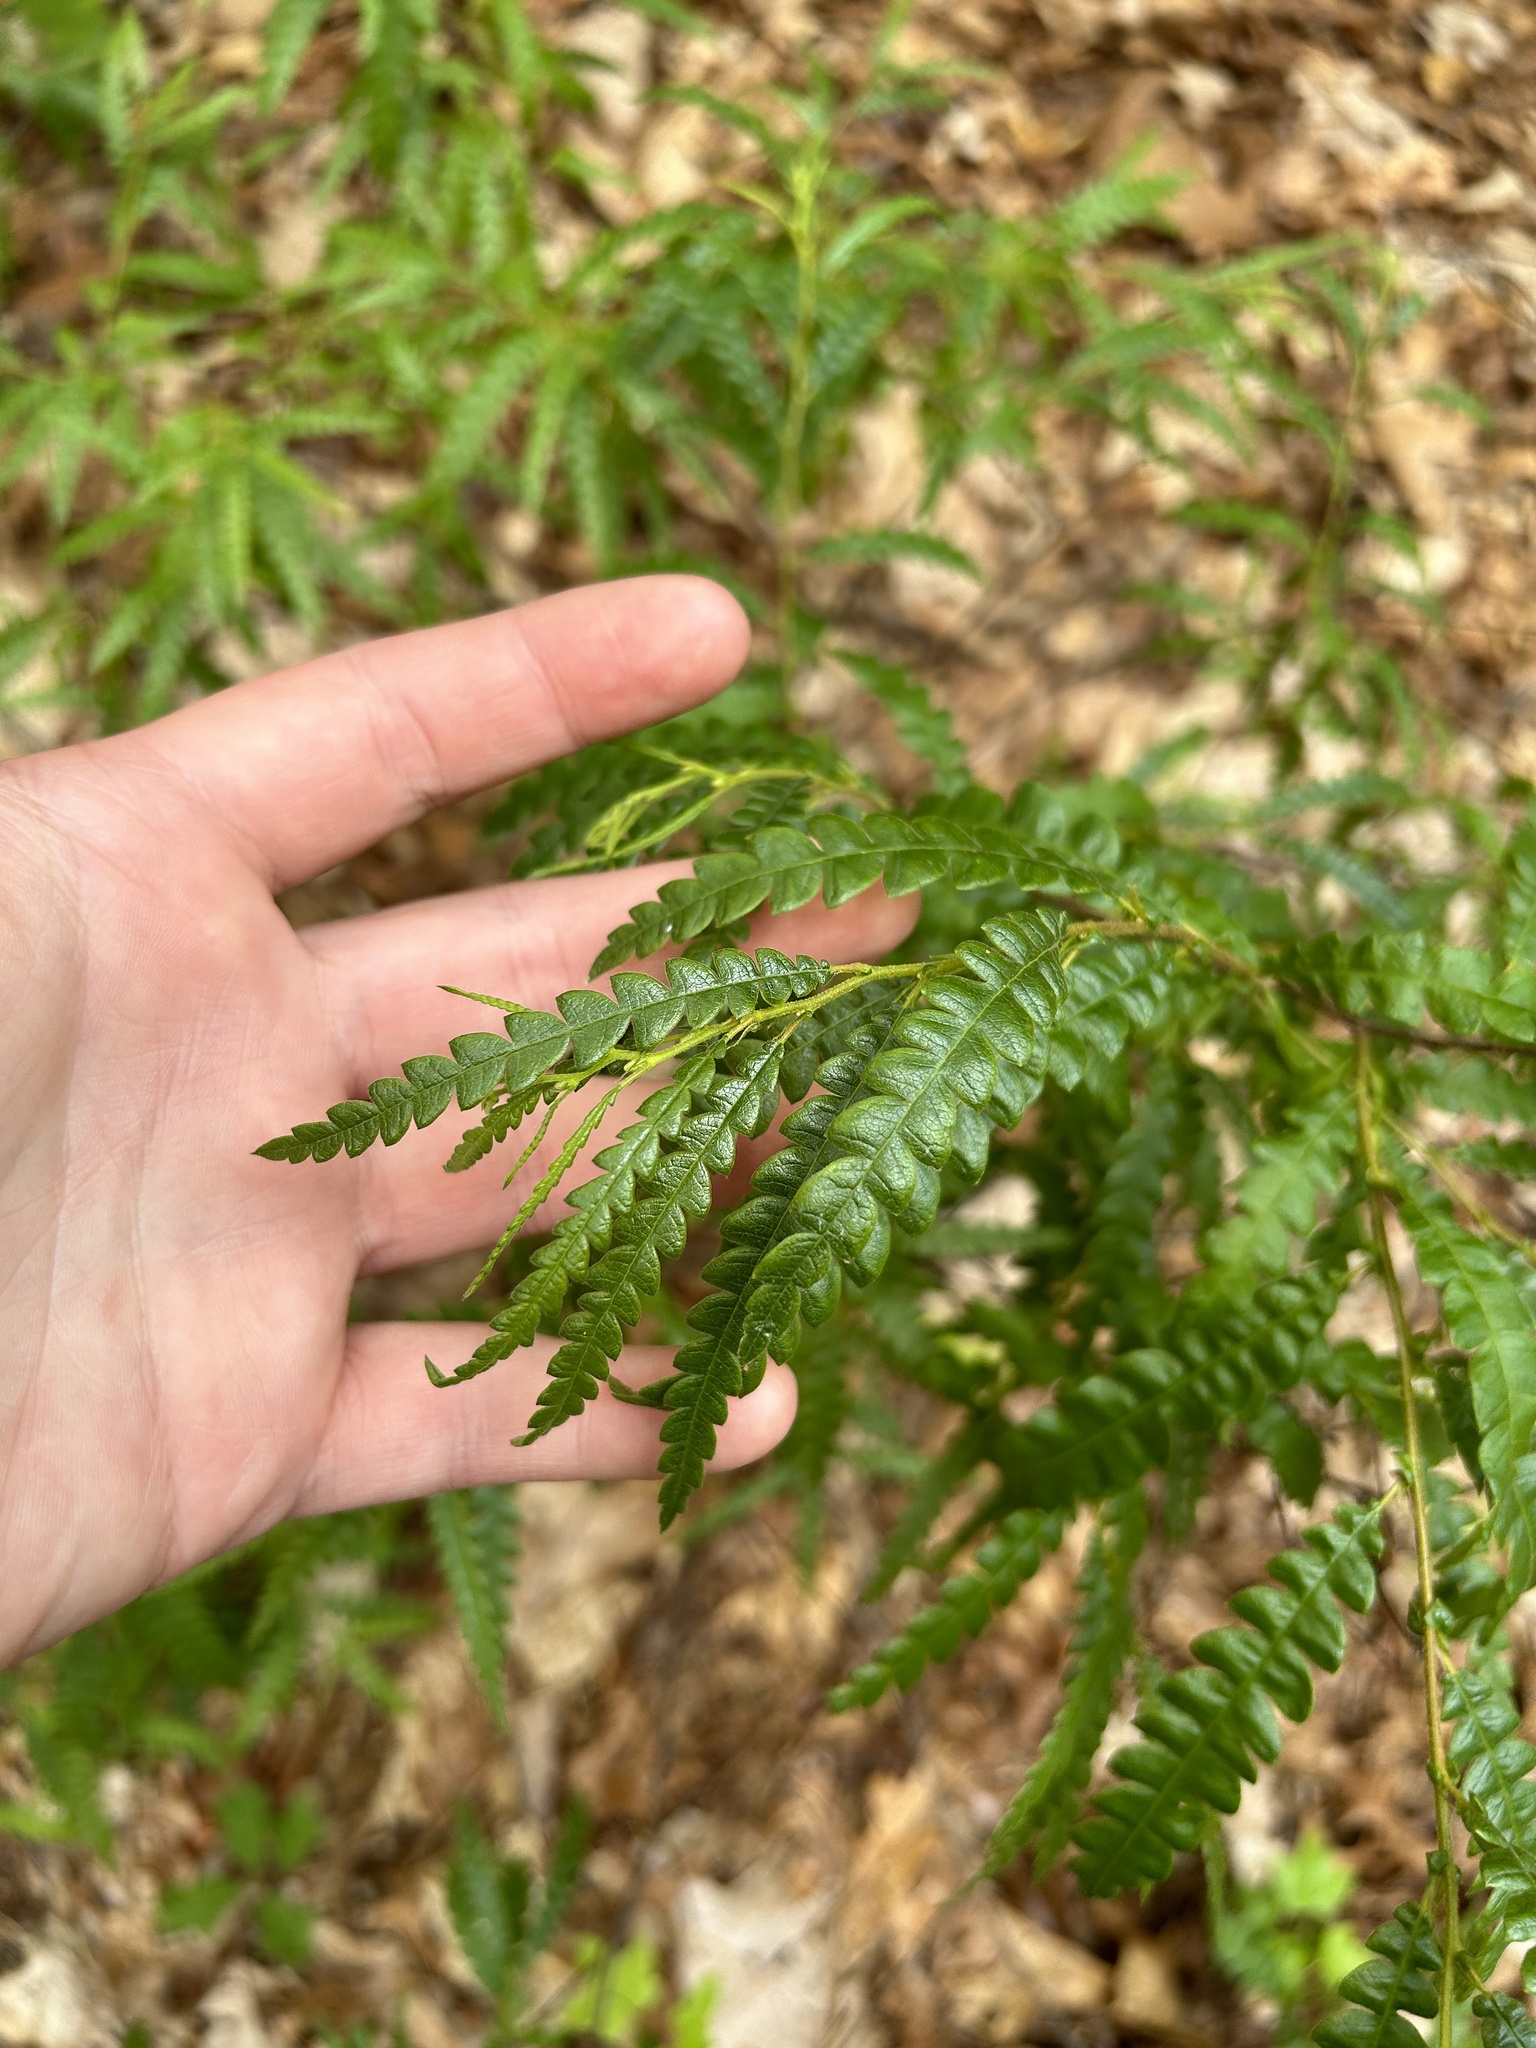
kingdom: Plantae
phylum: Tracheophyta
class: Magnoliopsida
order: Fagales
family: Myricaceae
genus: Comptonia
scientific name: Comptonia peregrina
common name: Sweet-fern
